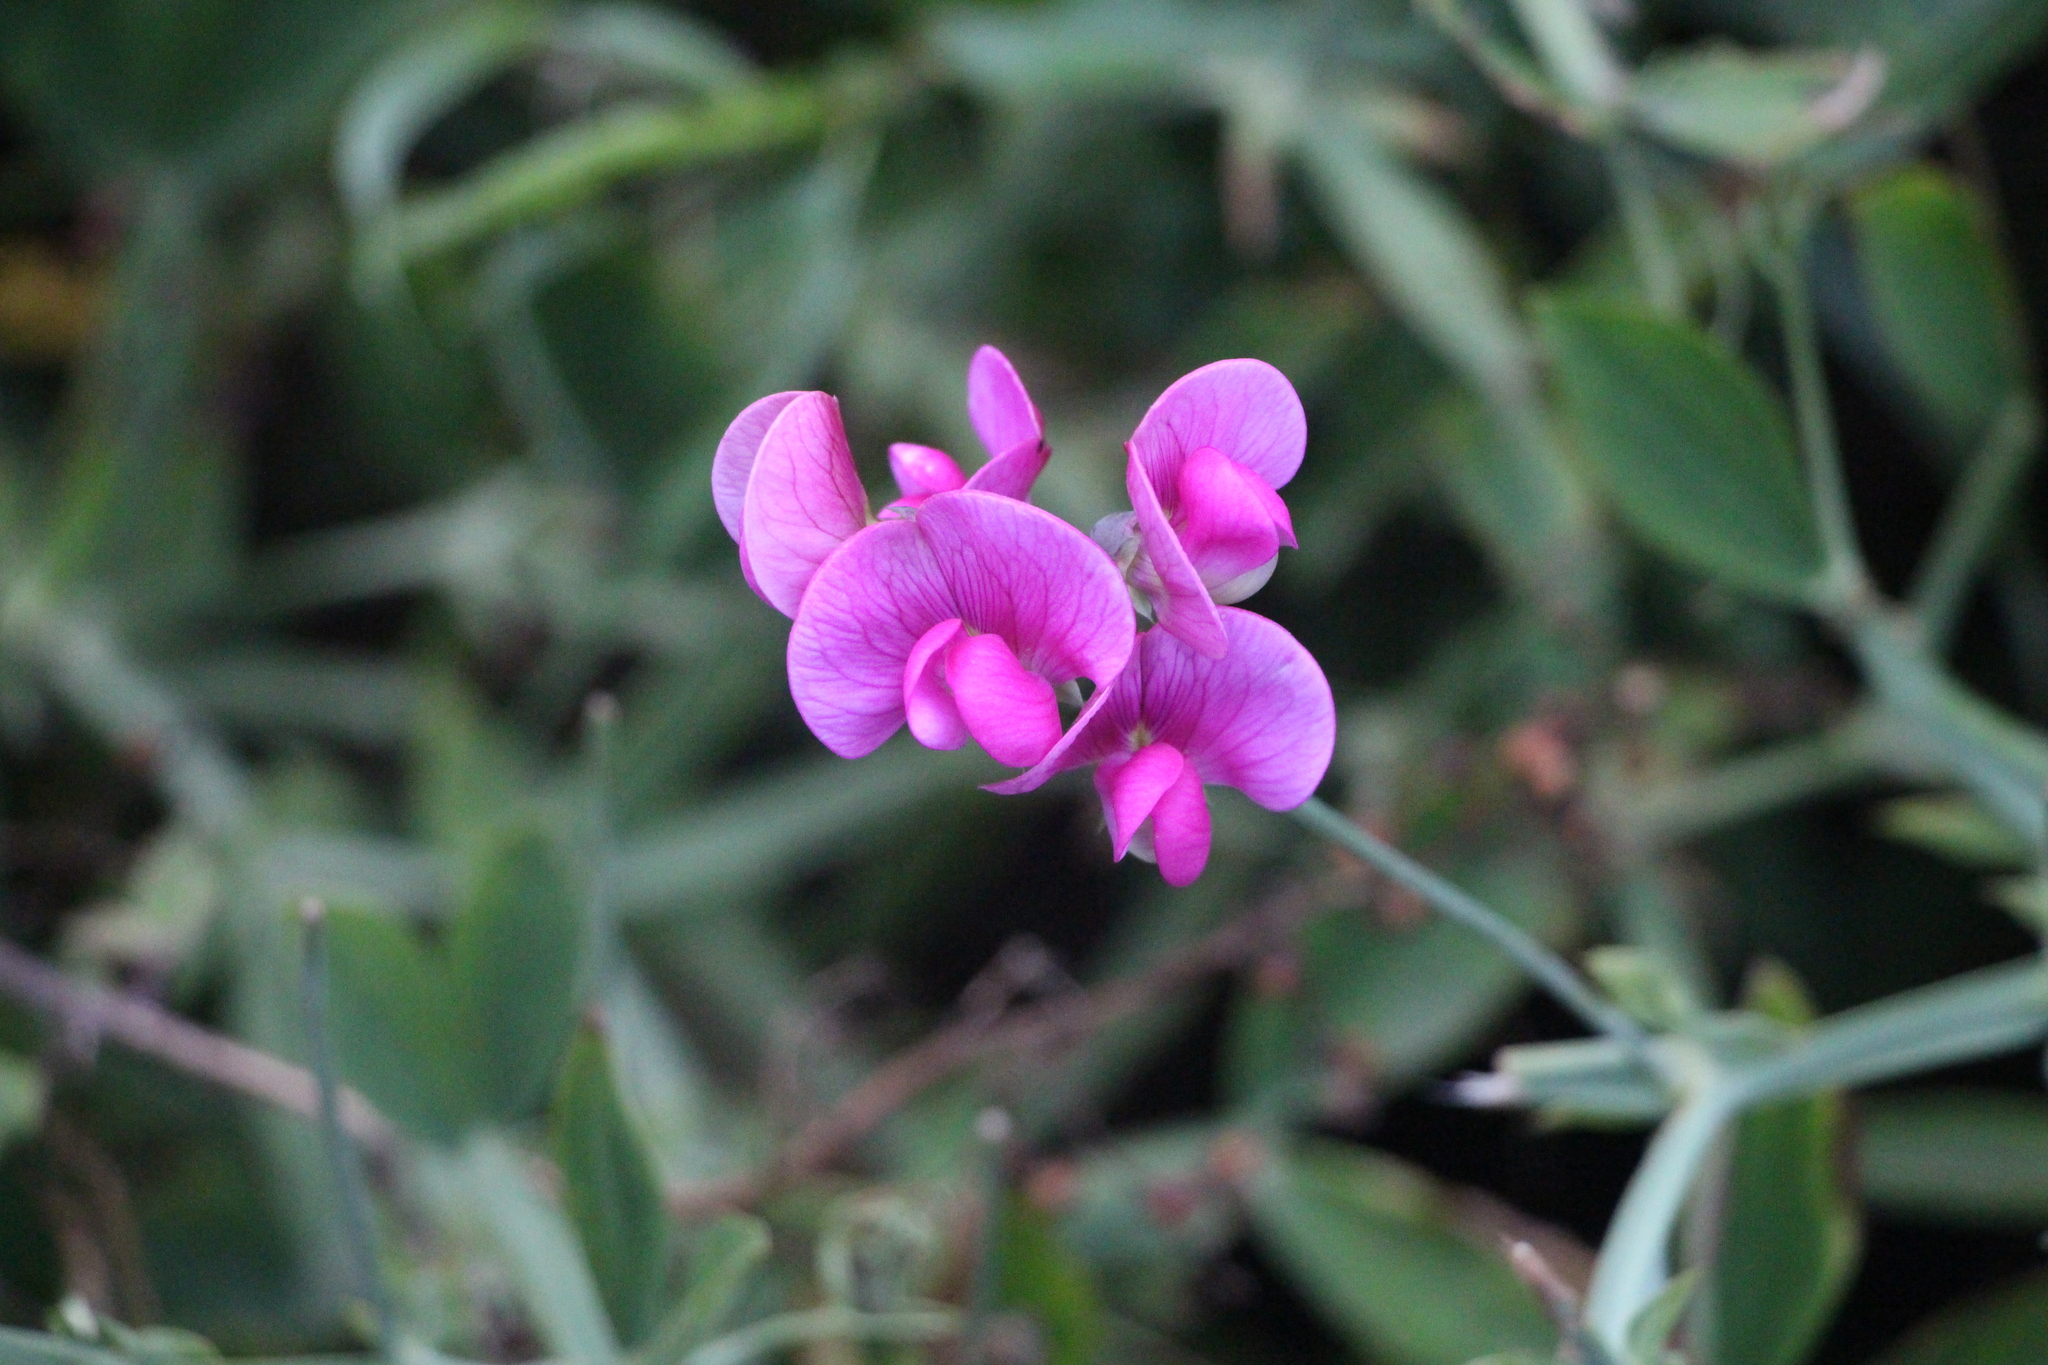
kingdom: Plantae
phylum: Tracheophyta
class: Magnoliopsida
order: Fabales
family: Fabaceae
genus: Lathyrus
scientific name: Lathyrus latifolius
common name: Perennial pea
